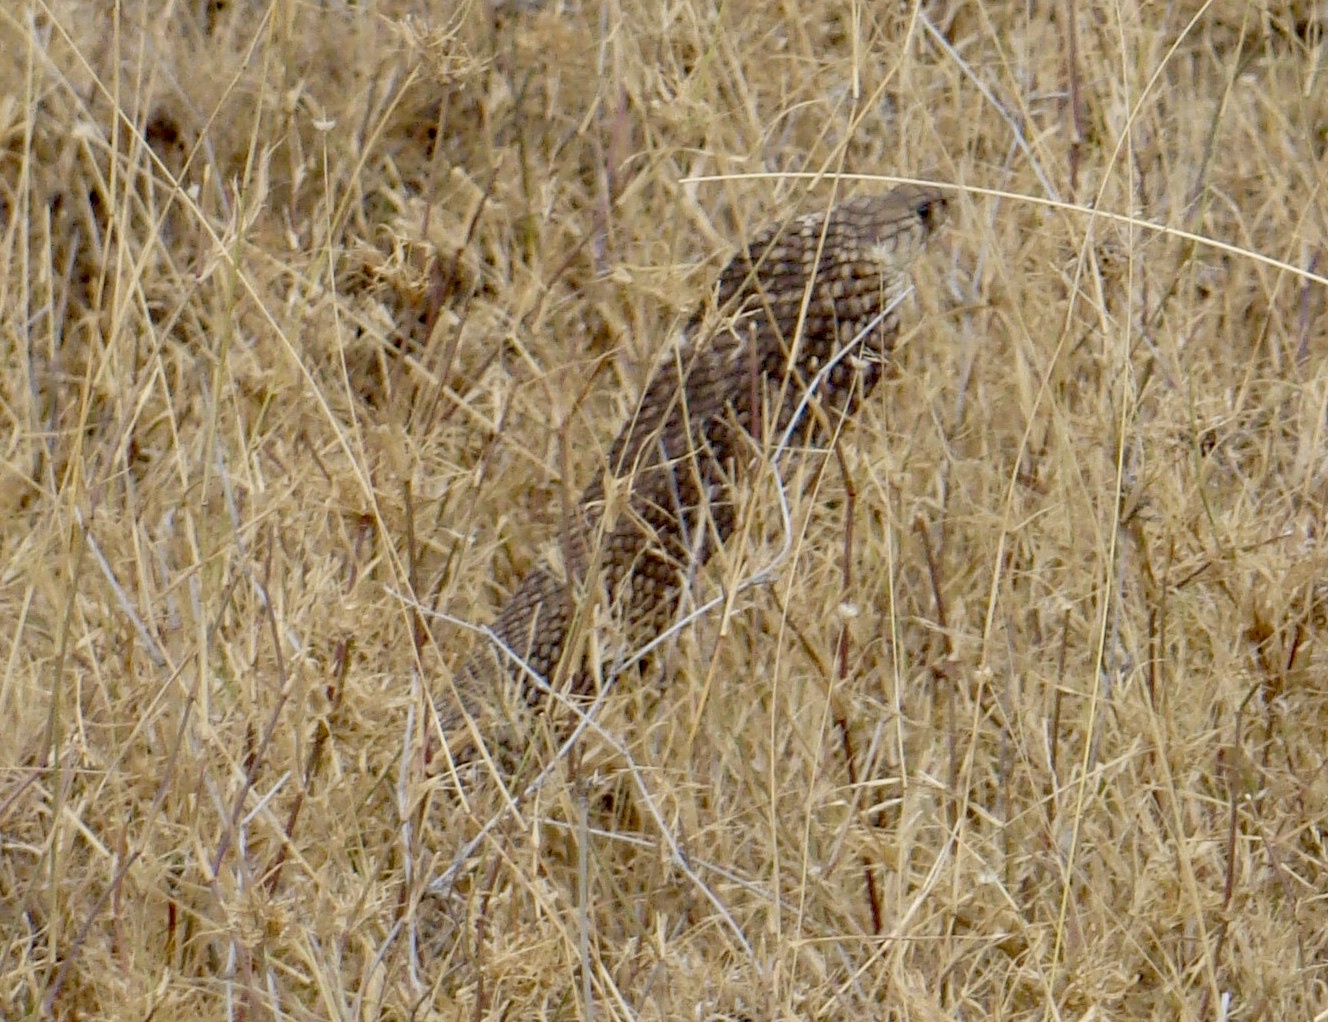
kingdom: Animalia
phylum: Chordata
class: Squamata
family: Elapidae
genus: Naja
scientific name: Naja haje
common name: Egyptian cobra
